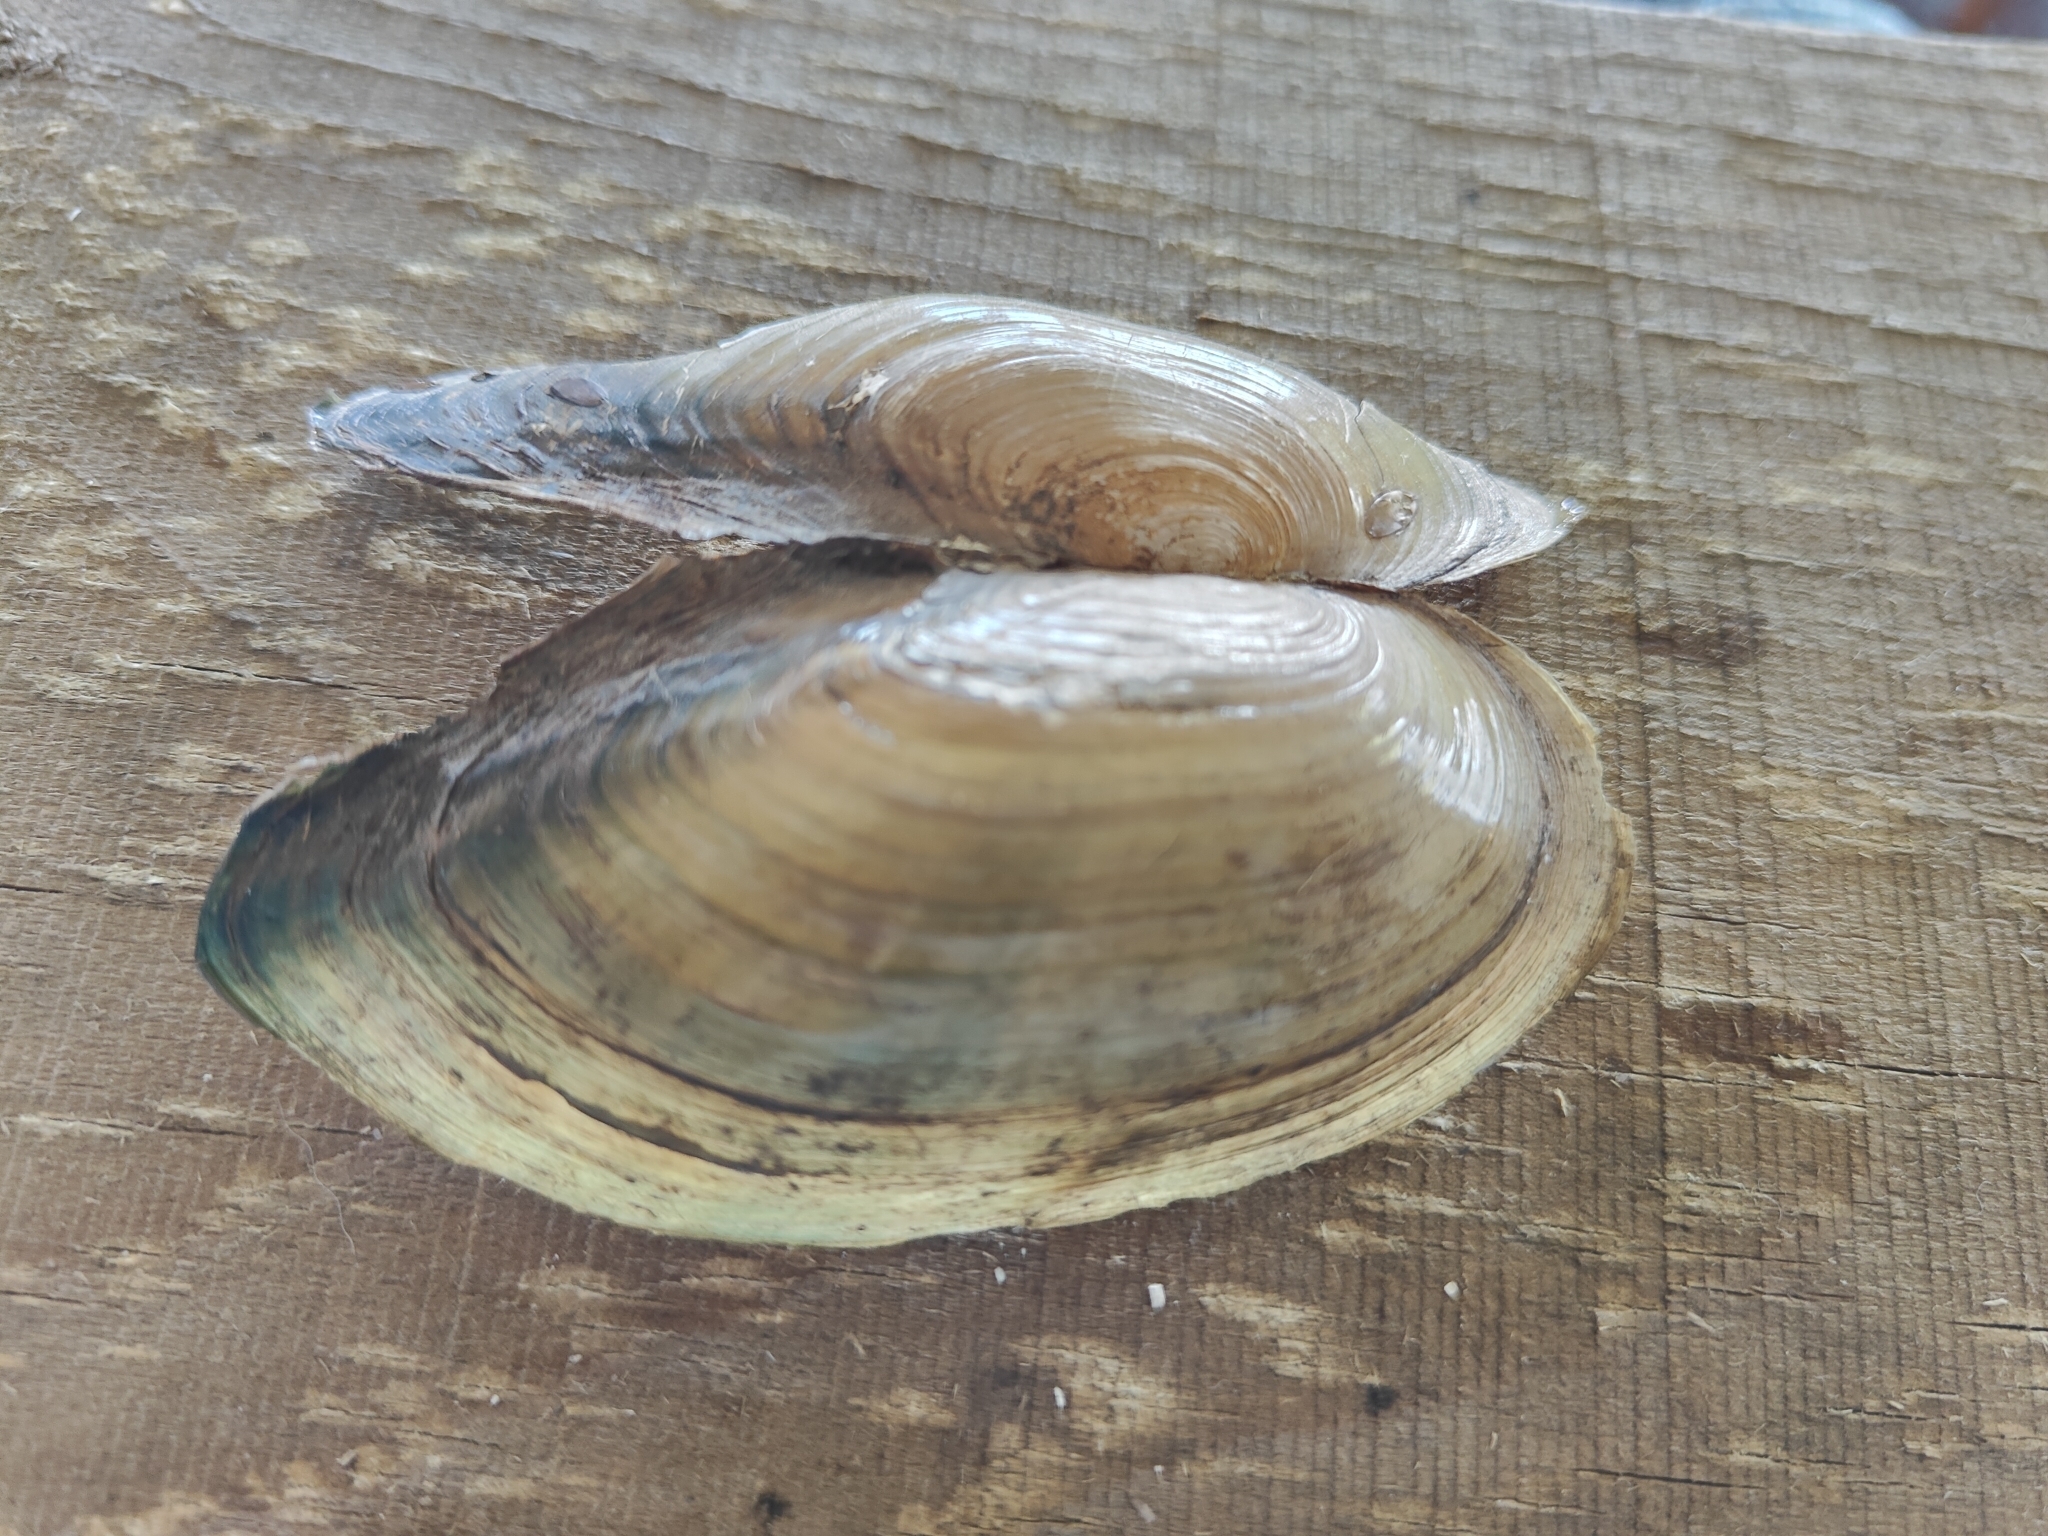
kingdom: Animalia
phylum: Mollusca
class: Bivalvia
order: Unionida
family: Unionidae
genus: Utterbackia
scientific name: Utterbackia imbecillis
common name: Paper pondshell
